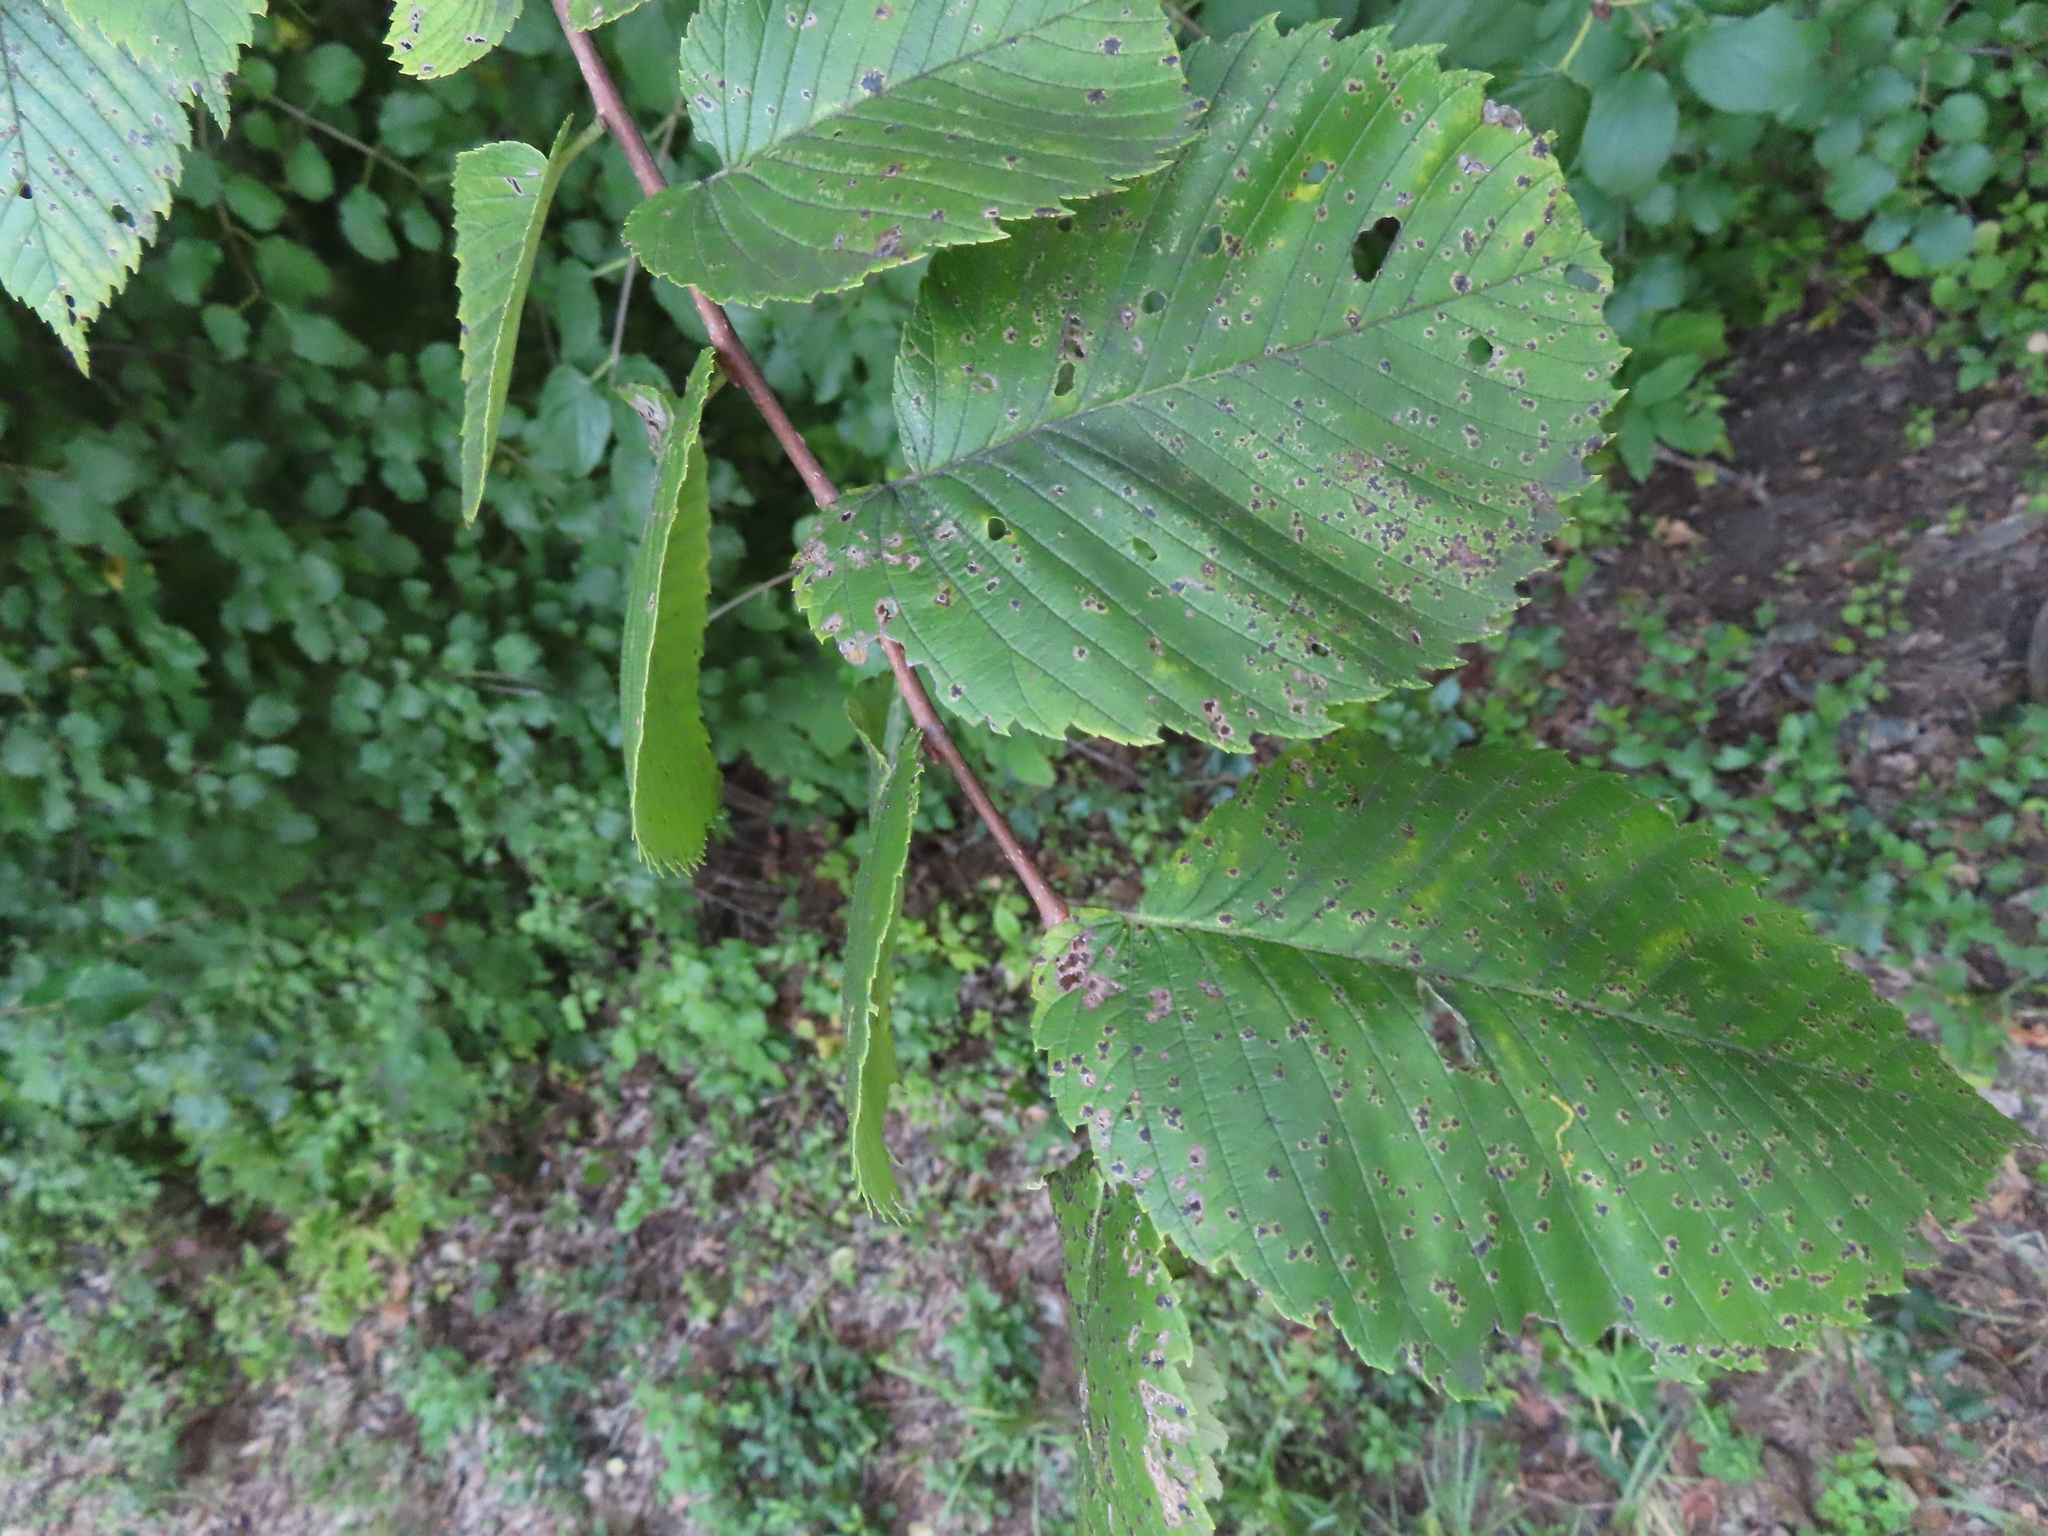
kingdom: Plantae
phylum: Tracheophyta
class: Magnoliopsida
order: Rosales
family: Ulmaceae
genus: Ulmus
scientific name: Ulmus americana
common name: American elm
